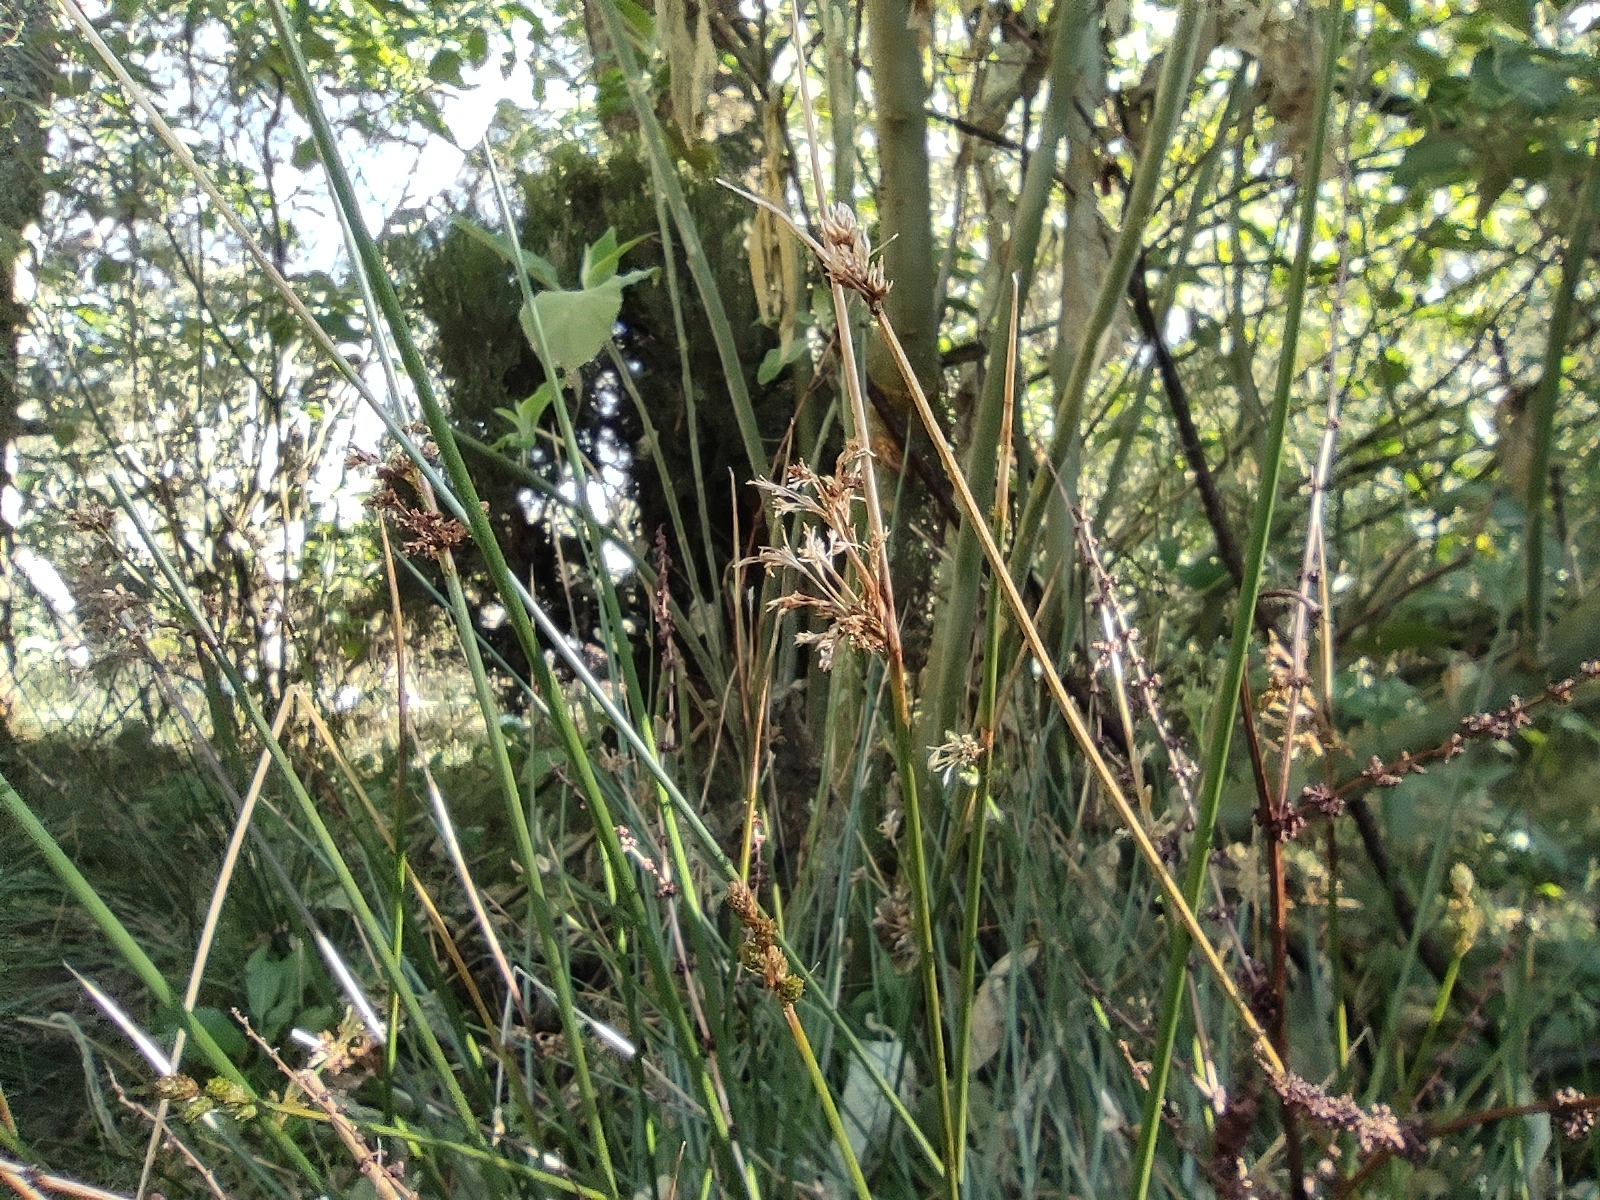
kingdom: Plantae
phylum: Tracheophyta
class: Liliopsida
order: Poales
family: Juncaceae
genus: Juncus
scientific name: Juncus effusus
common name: Soft rush
